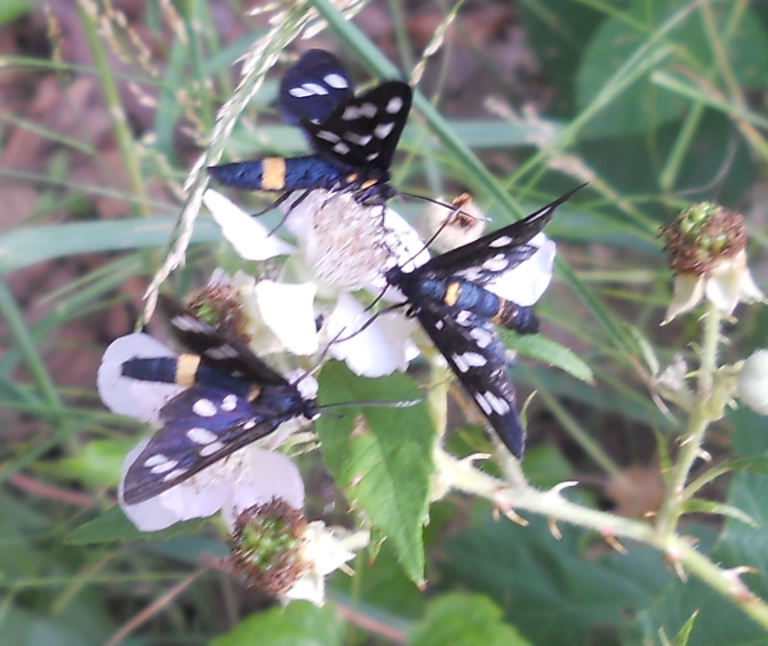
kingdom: Animalia
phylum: Arthropoda
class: Insecta
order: Lepidoptera
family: Erebidae
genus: Amata
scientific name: Amata phegea
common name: Nine-spotted
